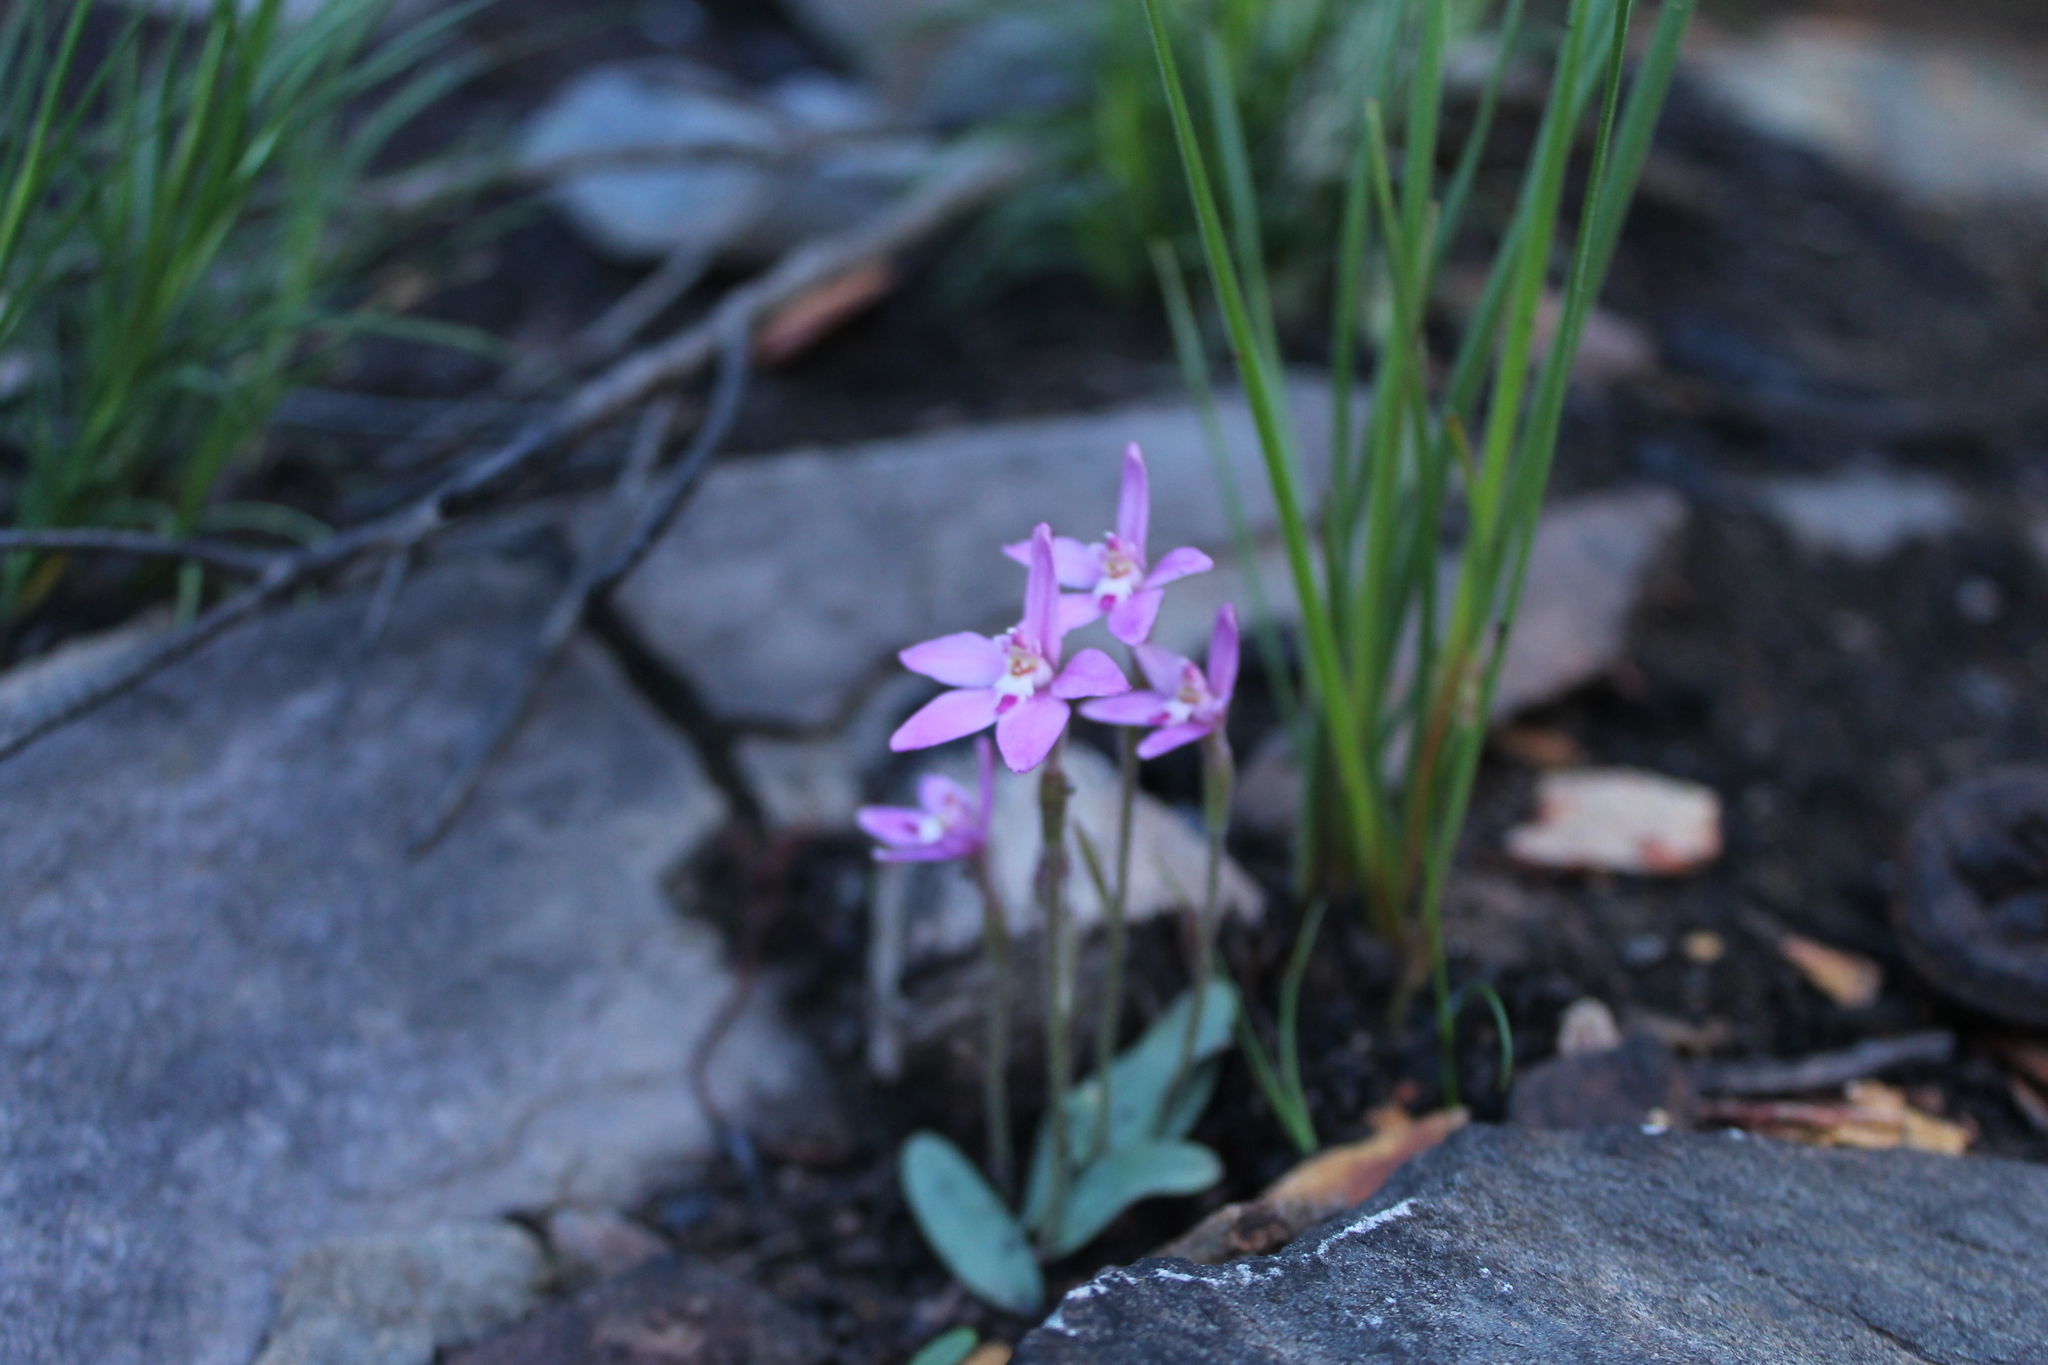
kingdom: Plantae
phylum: Tracheophyta
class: Liliopsida
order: Asparagales
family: Orchidaceae
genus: Caladenia
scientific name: Caladenia reptans
